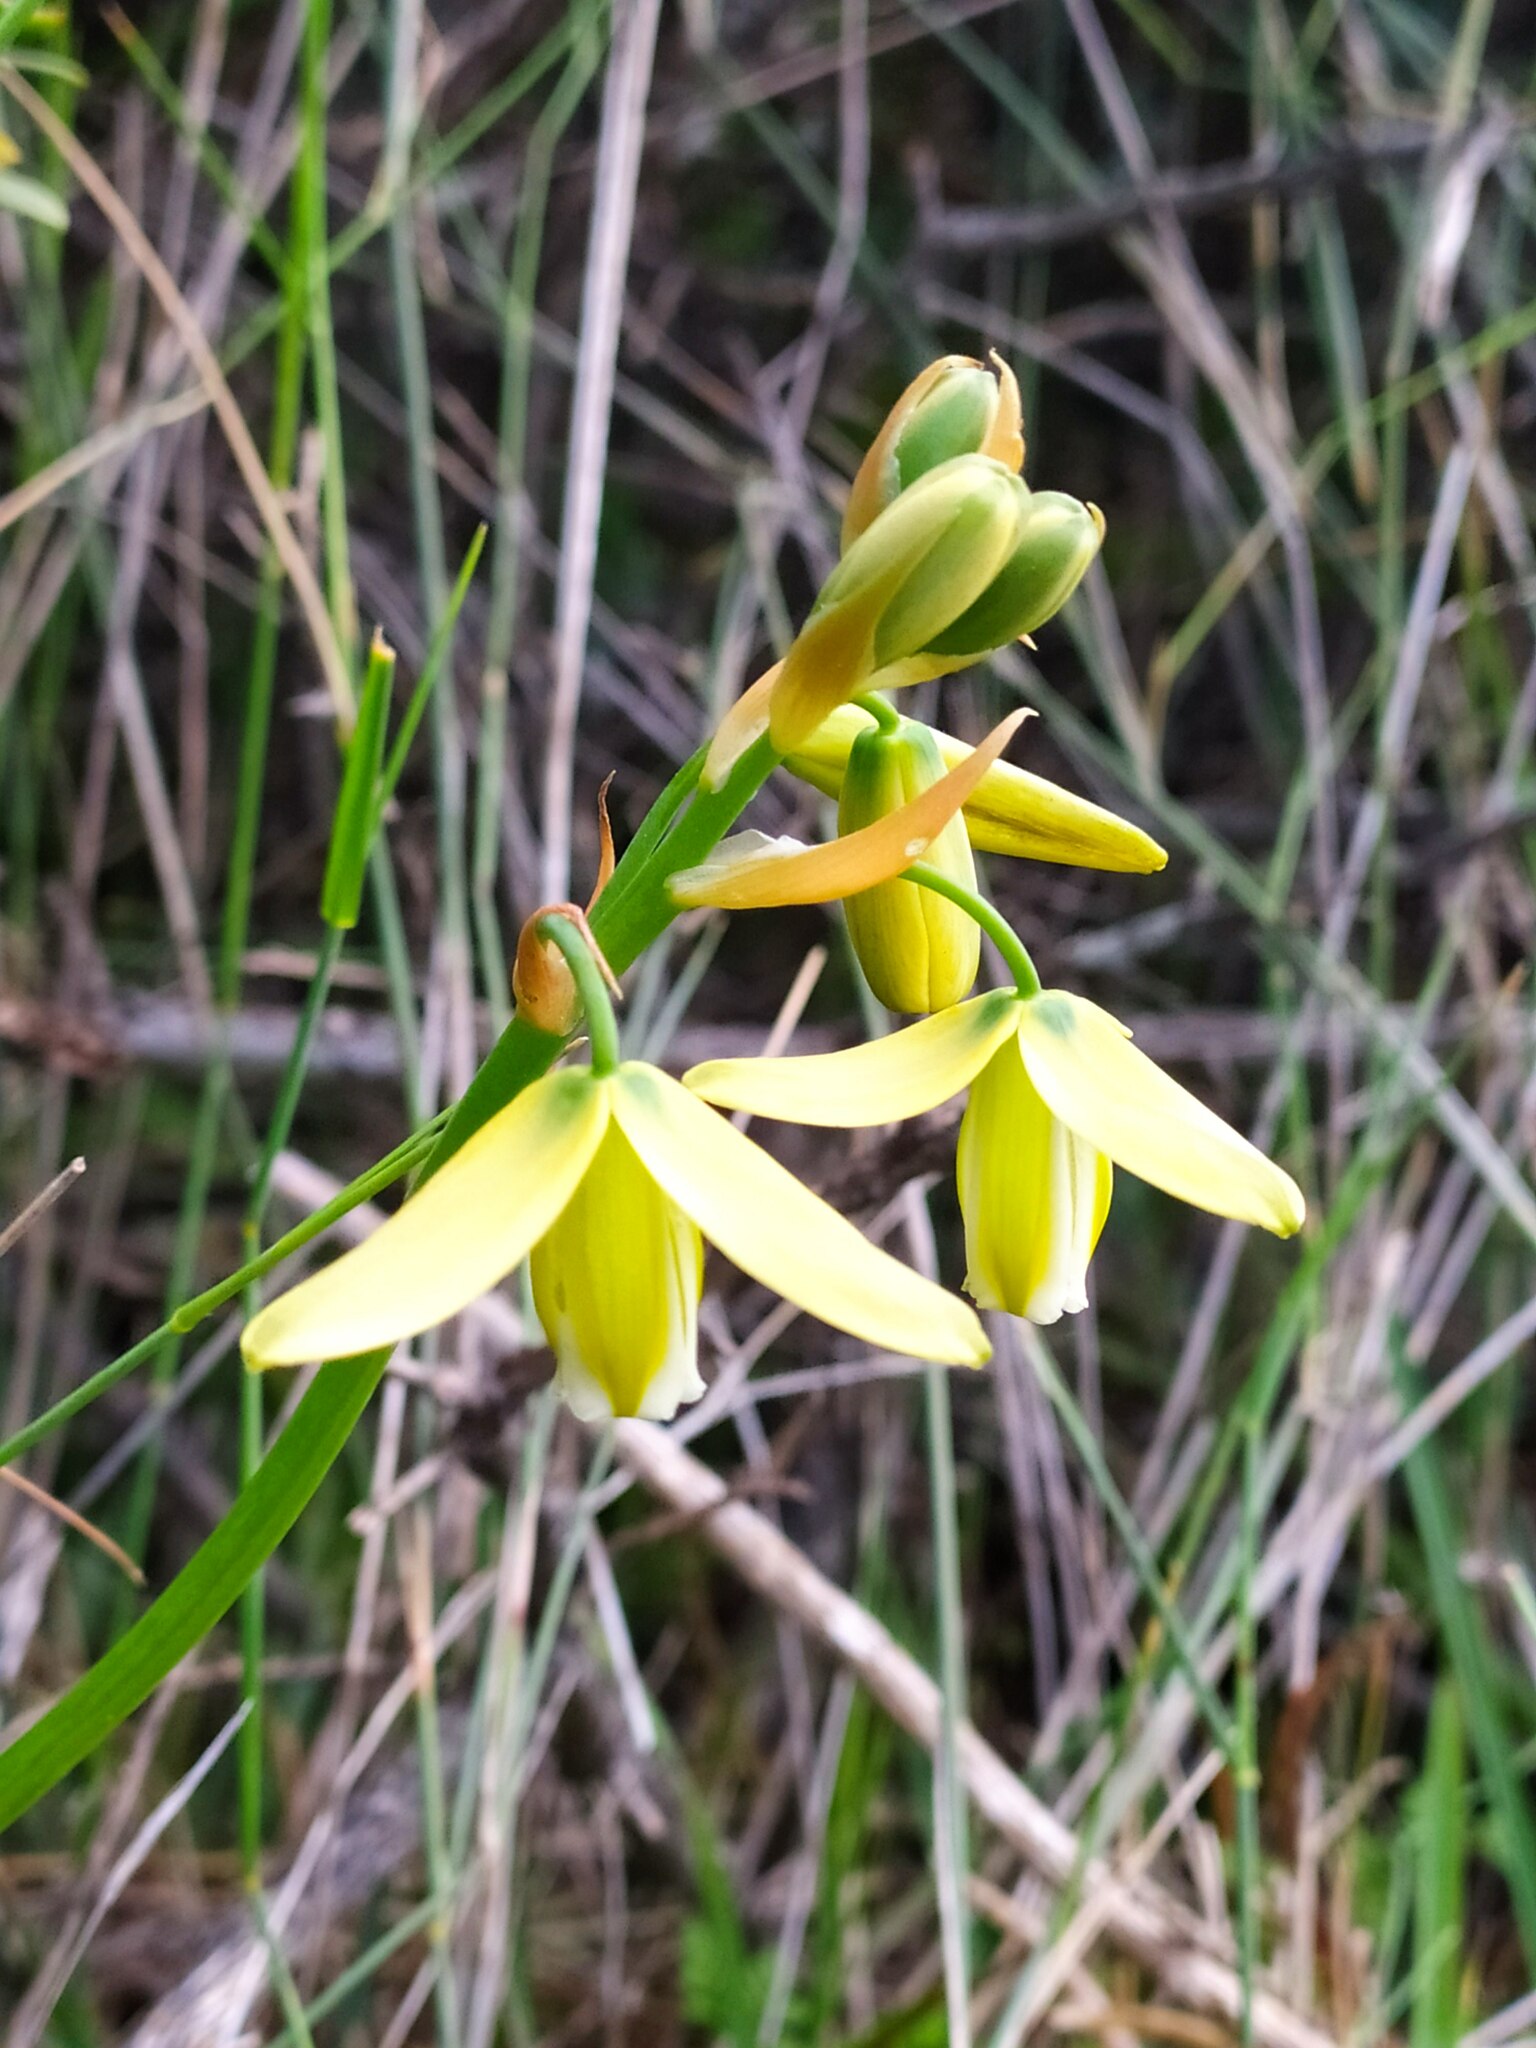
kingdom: Plantae
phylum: Tracheophyta
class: Liliopsida
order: Asparagales
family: Asparagaceae
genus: Albuca
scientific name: Albuca cooperi
